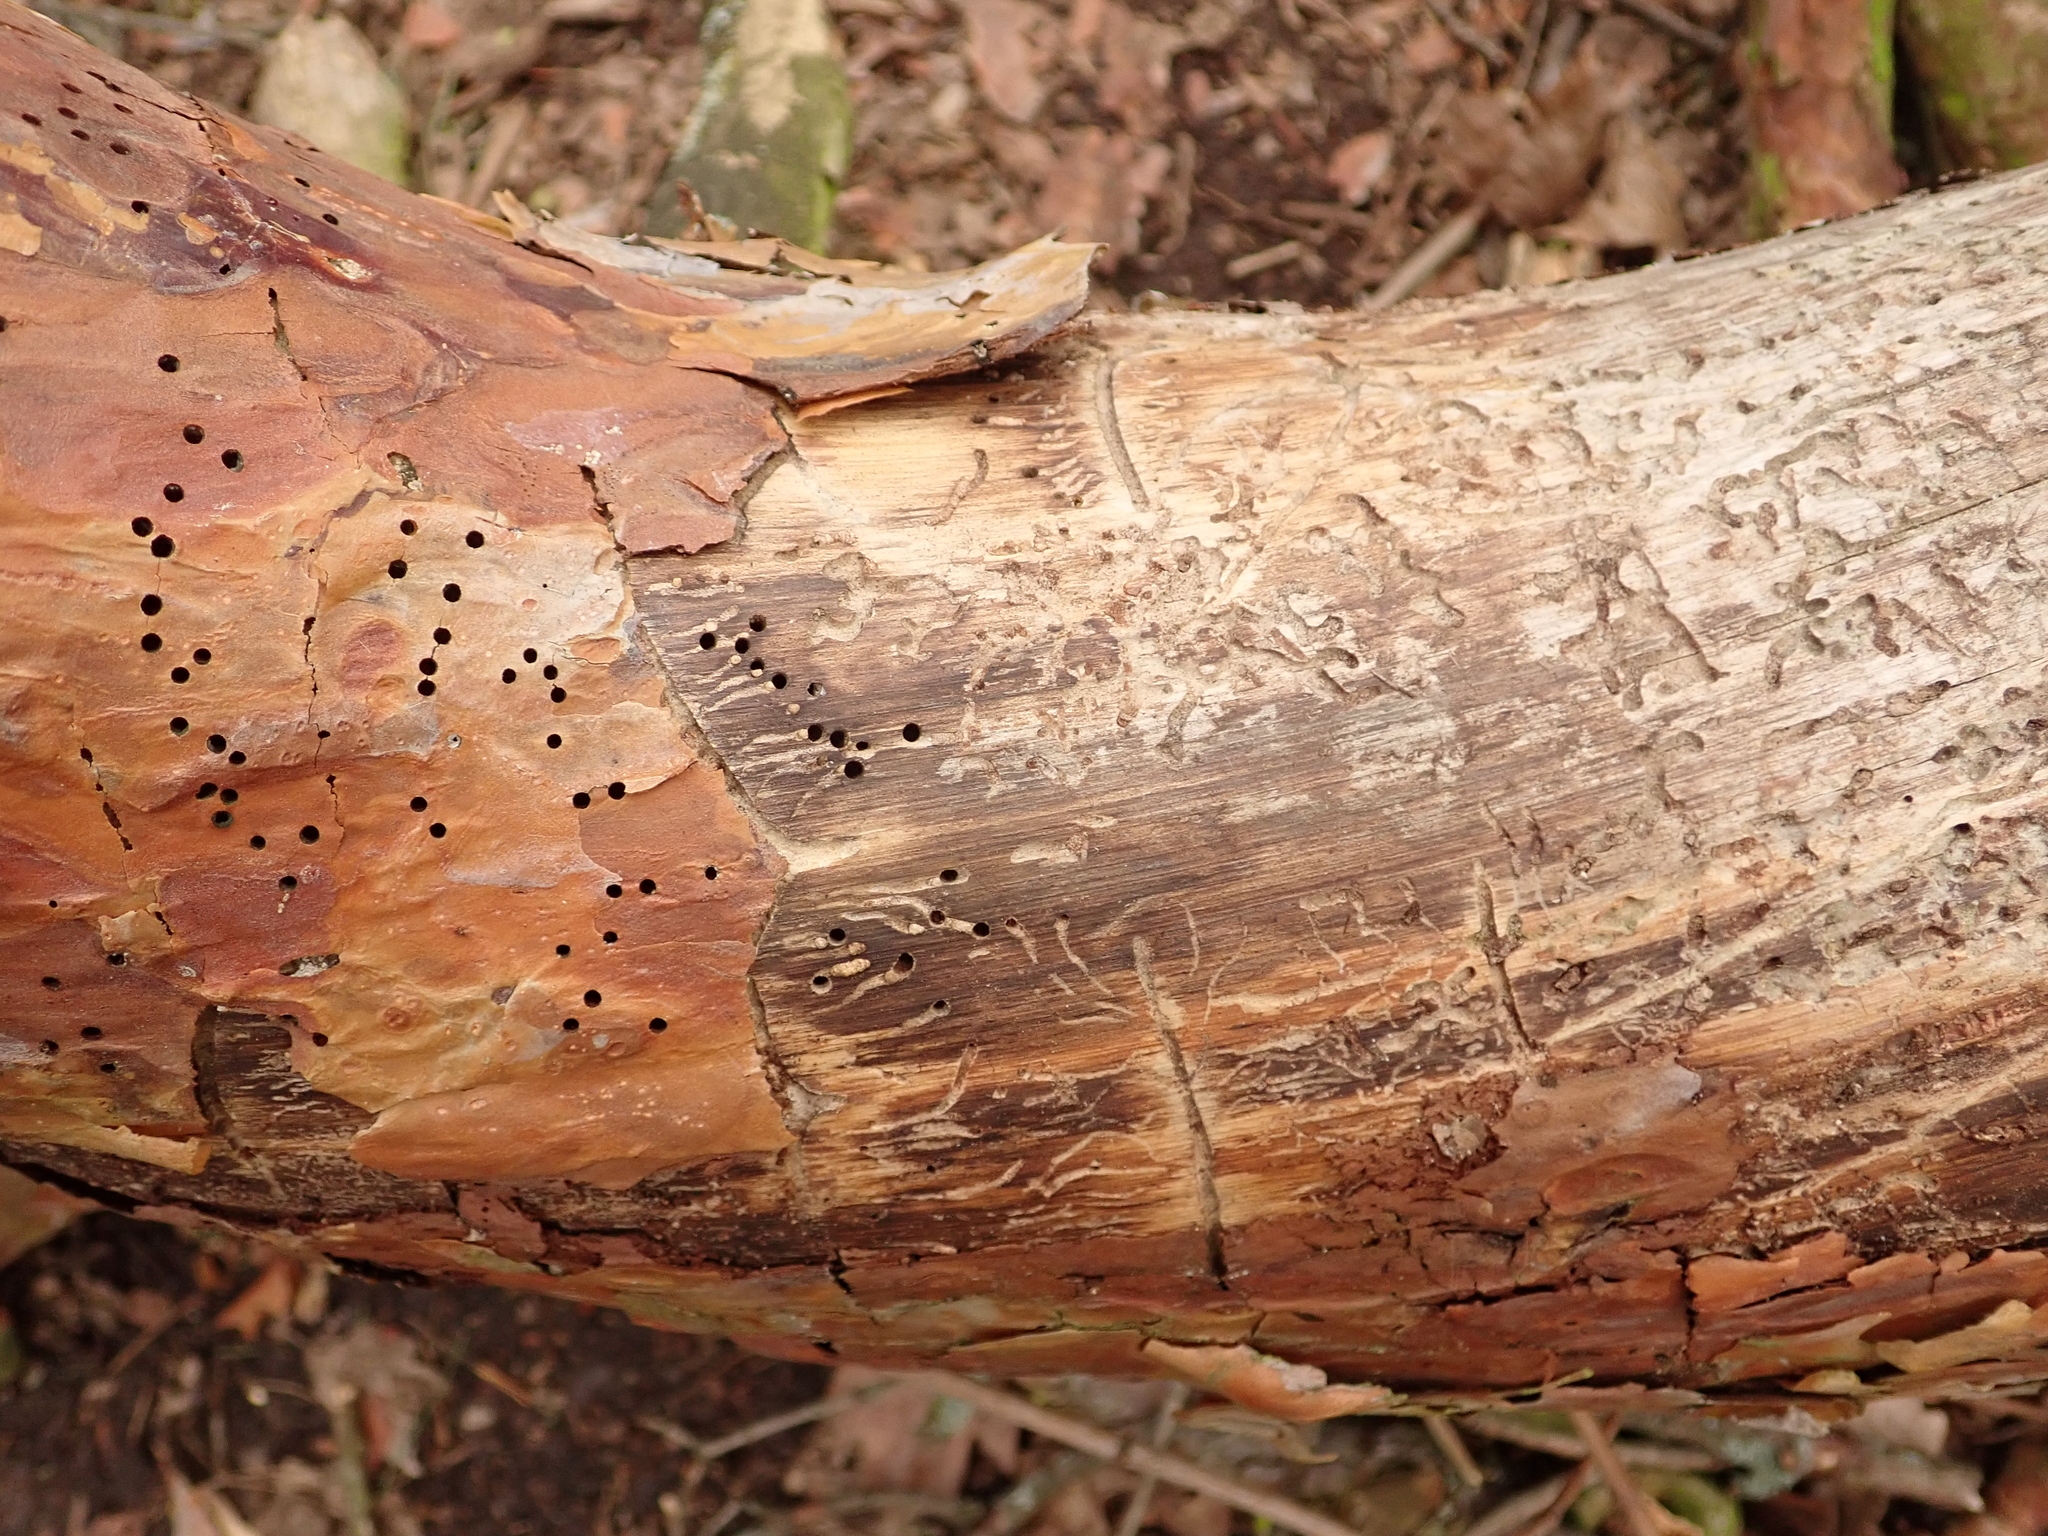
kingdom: Animalia
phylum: Arthropoda
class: Insecta
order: Coleoptera
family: Curculionidae
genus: Tomicus
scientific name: Tomicus minor
